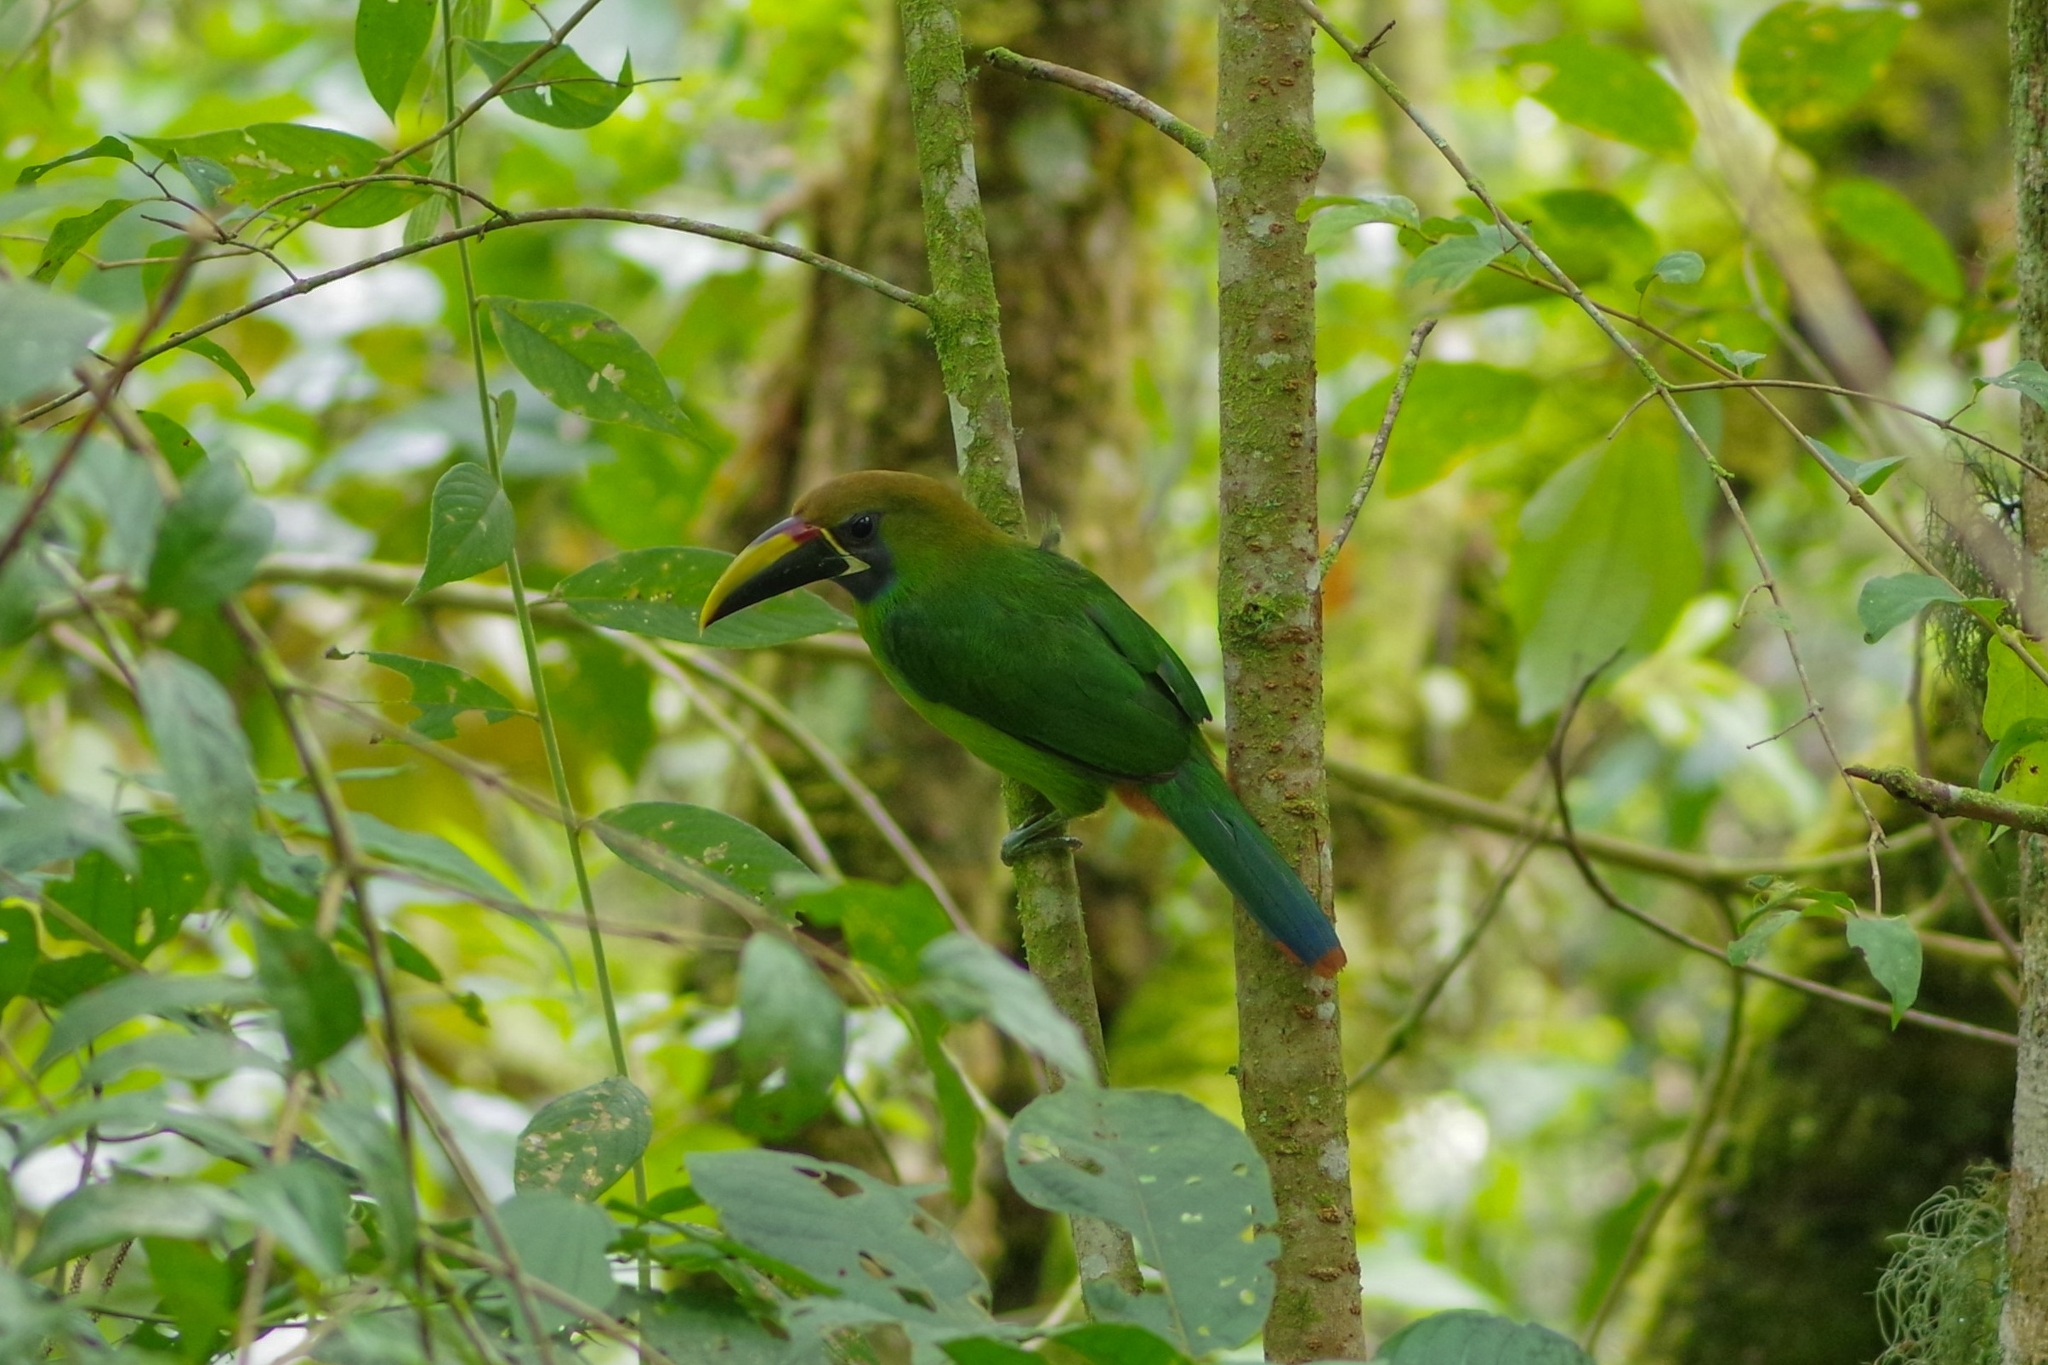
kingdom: Animalia
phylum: Chordata
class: Aves
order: Piciformes
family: Ramphastidae
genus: Aulacorhynchus
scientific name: Aulacorhynchus prasinus
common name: Emerald toucanet
